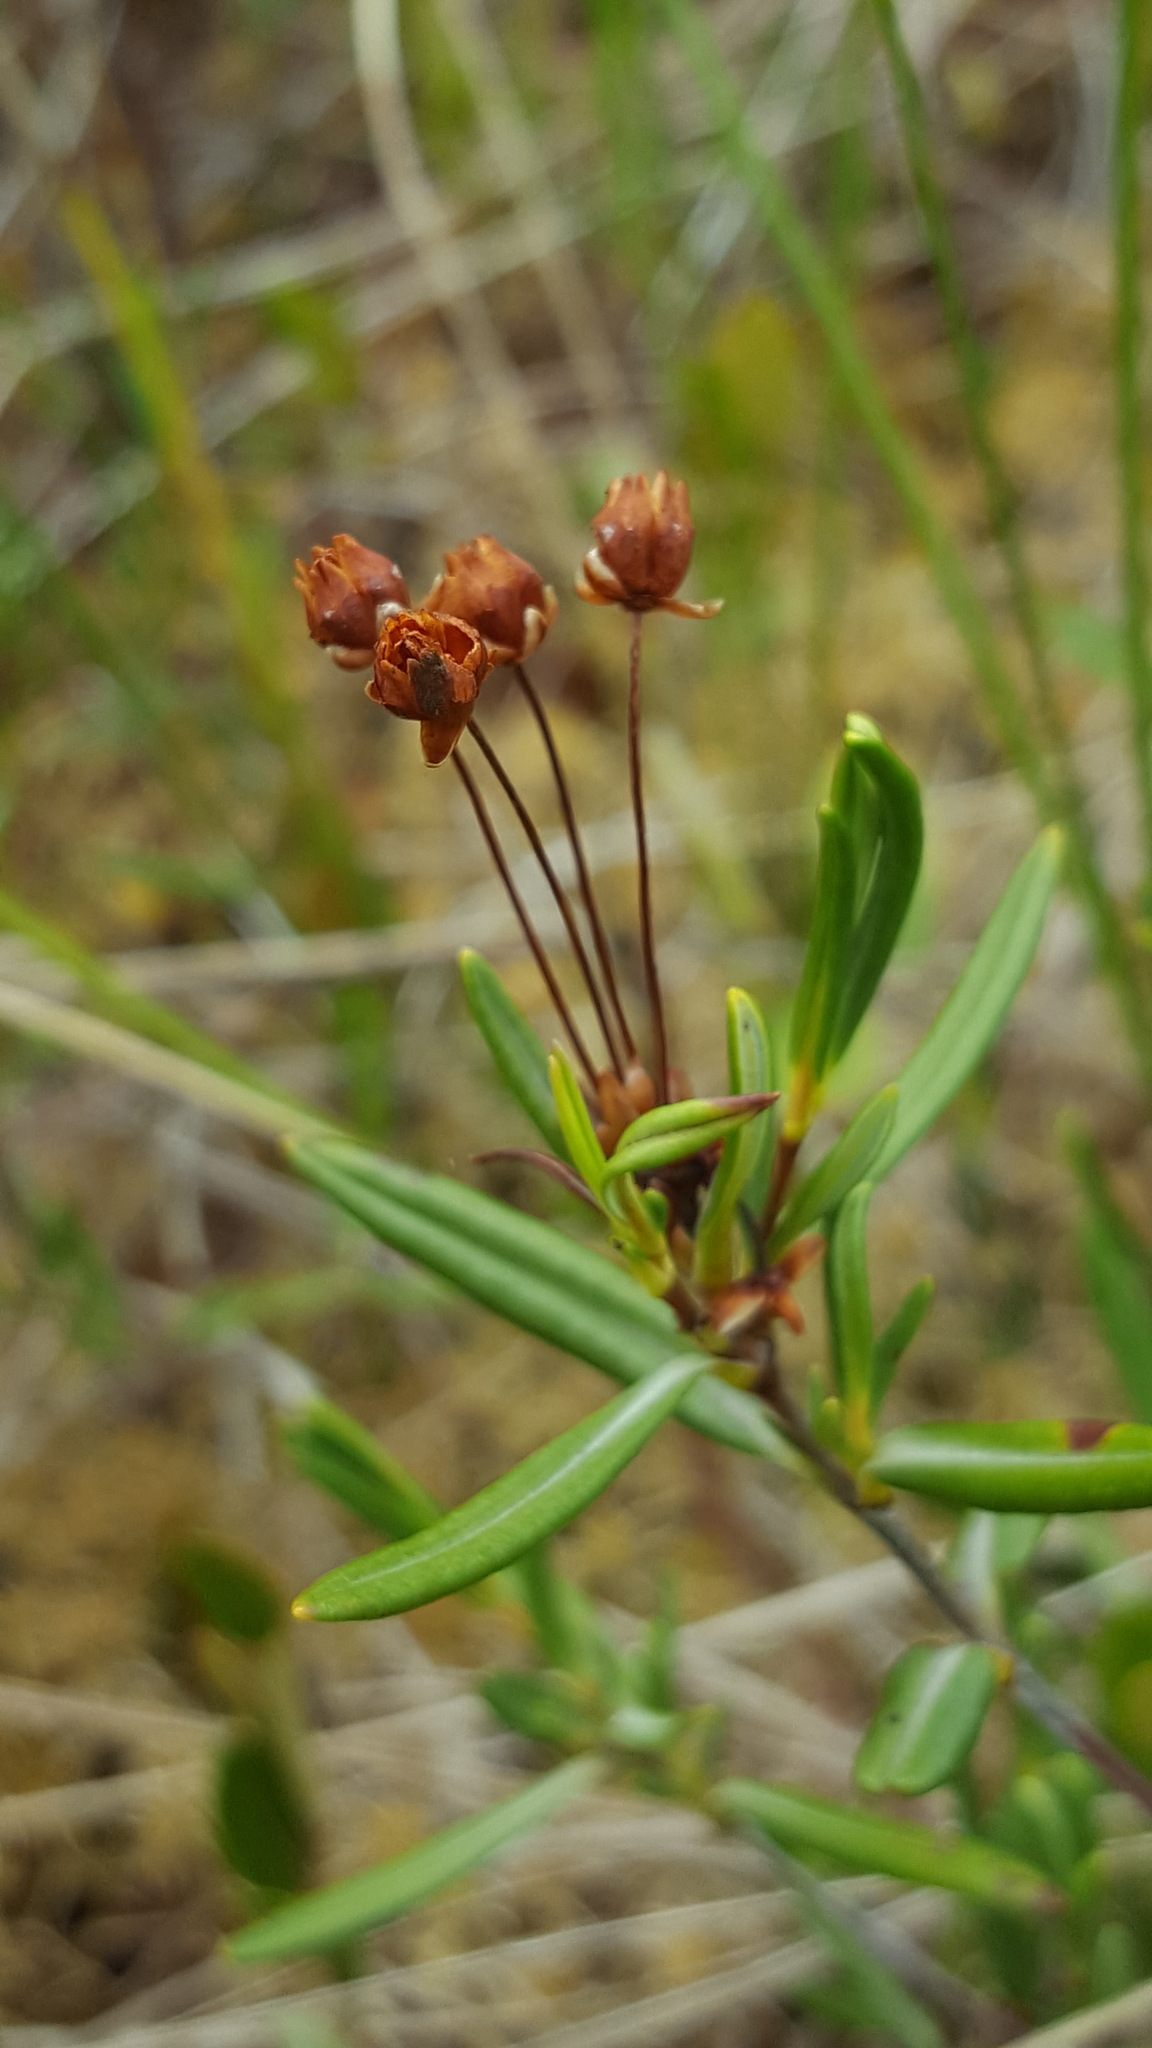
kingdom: Plantae
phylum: Tracheophyta
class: Magnoliopsida
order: Ericales
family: Ericaceae
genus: Kalmia
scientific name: Kalmia polifolia
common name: Bog-laurel
